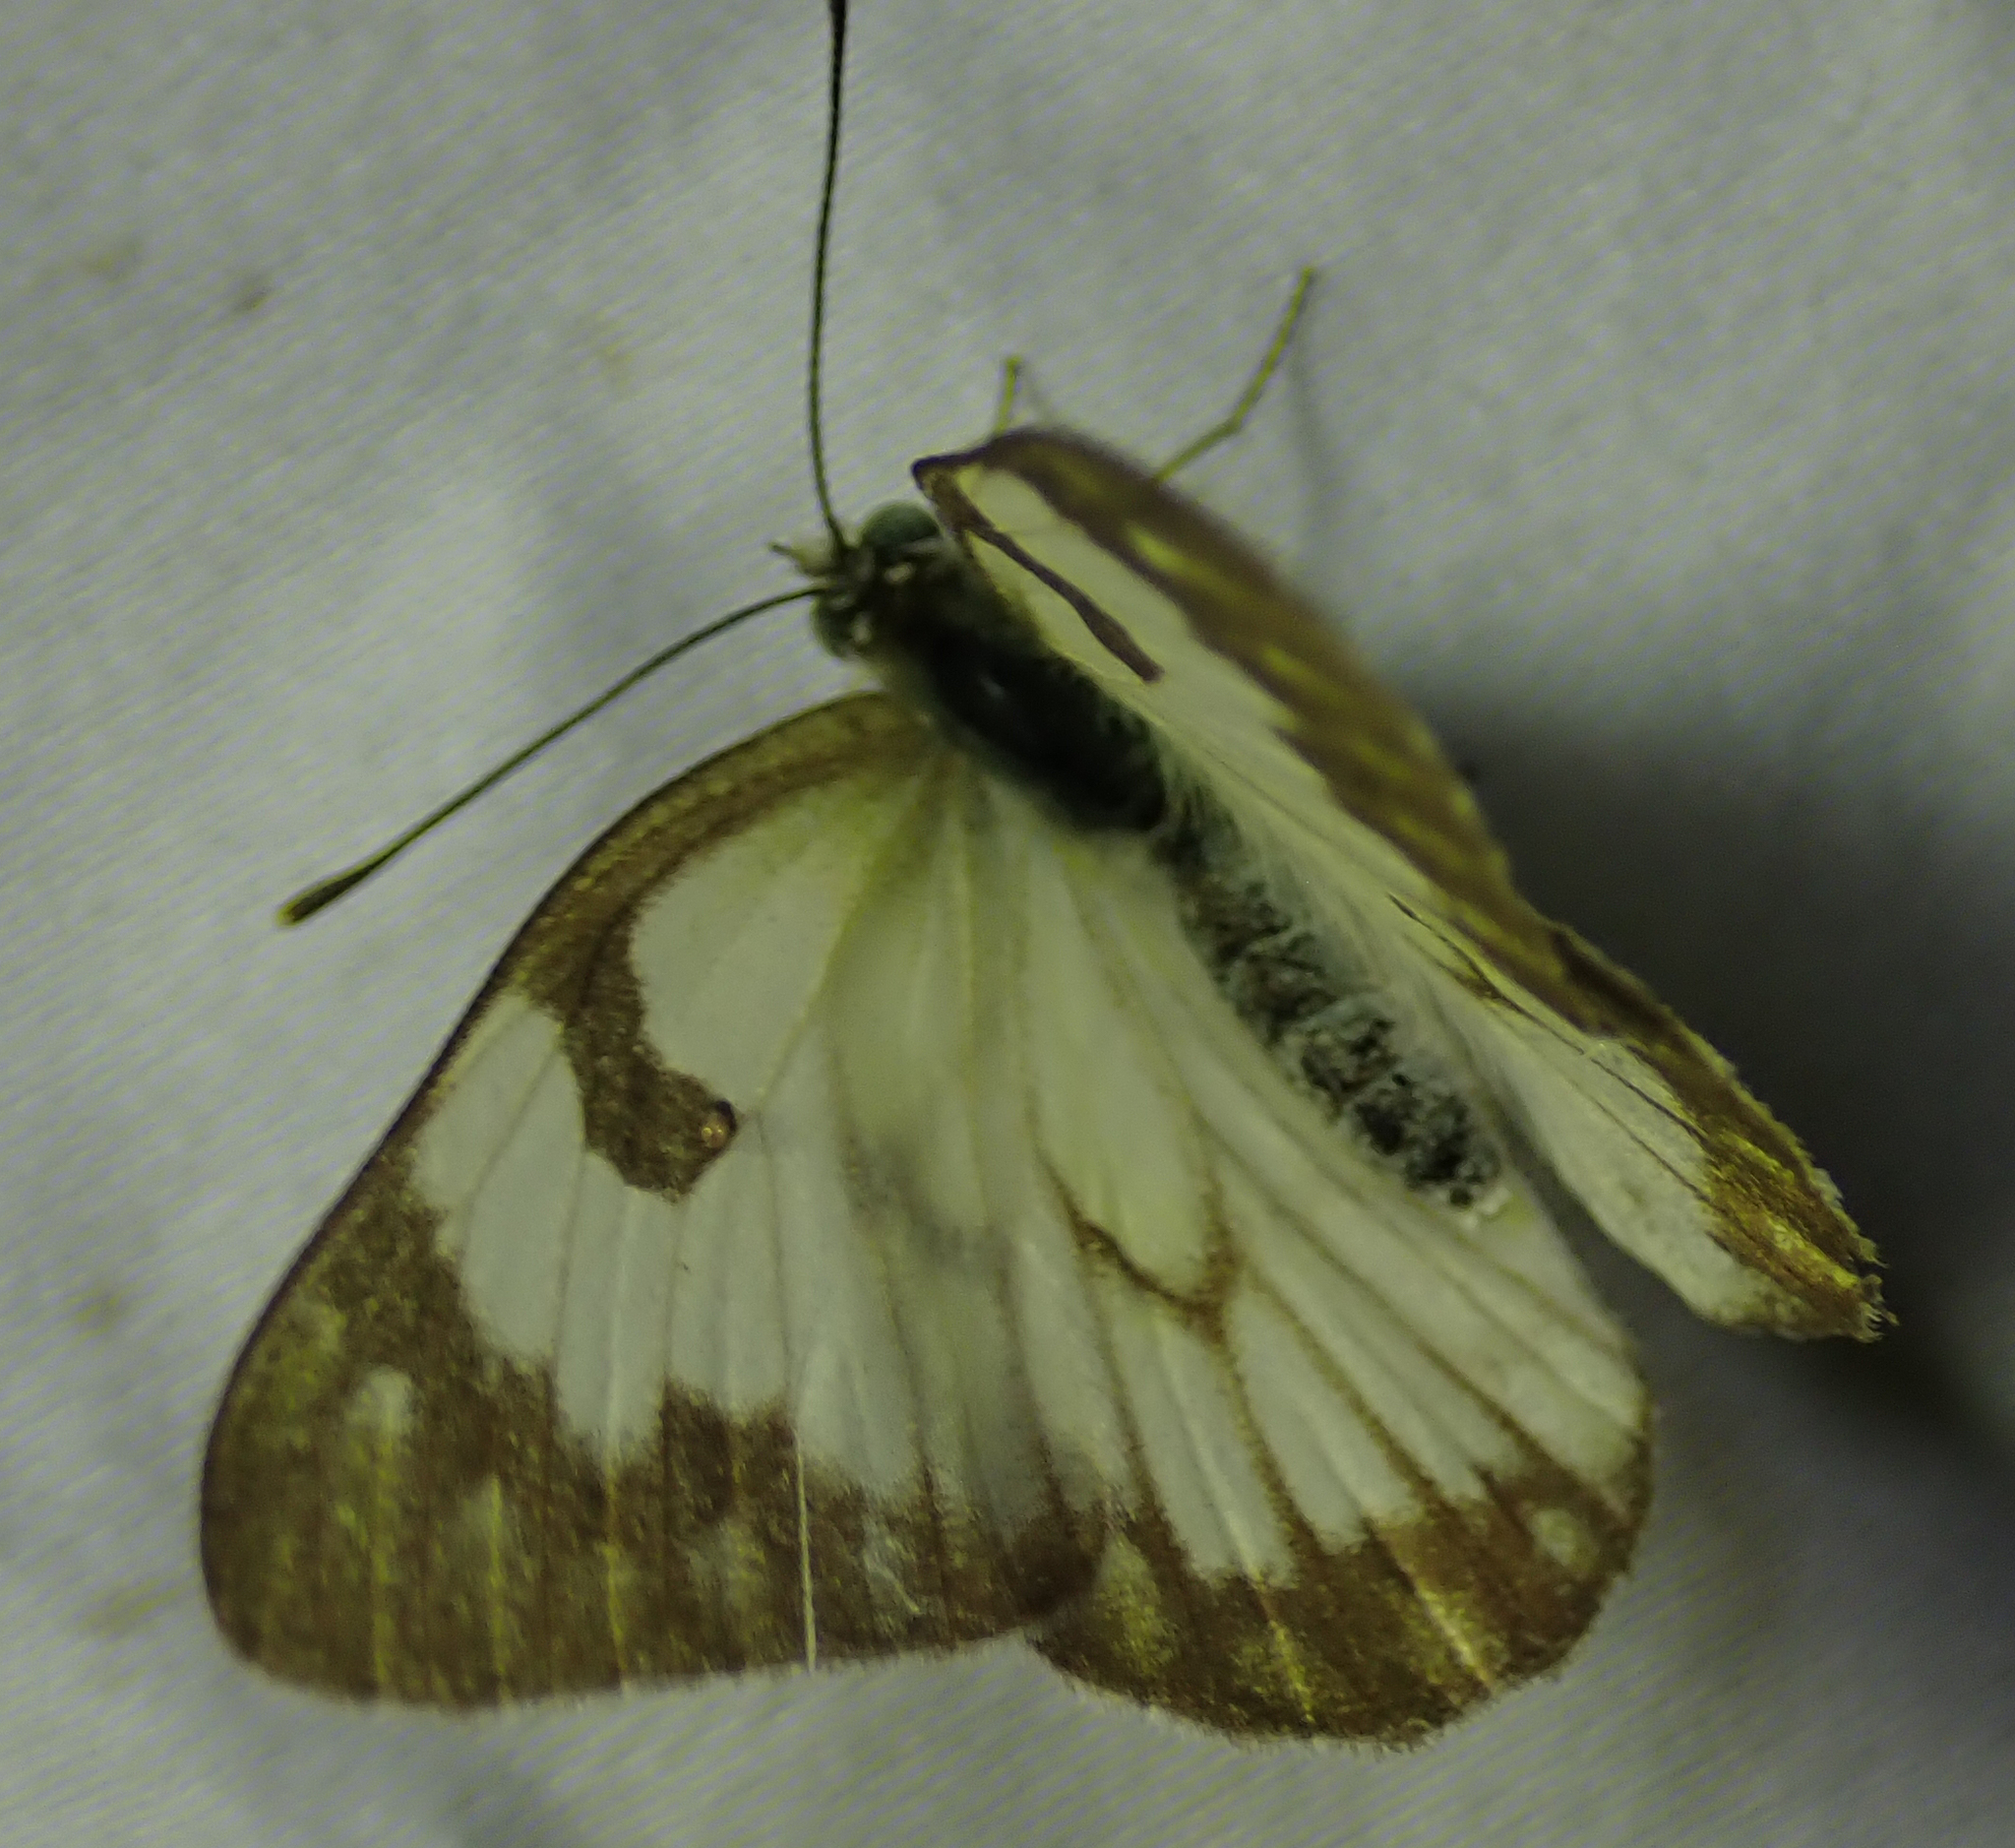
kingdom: Animalia
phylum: Arthropoda
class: Insecta
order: Lepidoptera
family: Pieridae
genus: Belenois
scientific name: Belenois aurota
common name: Brown-veined white
